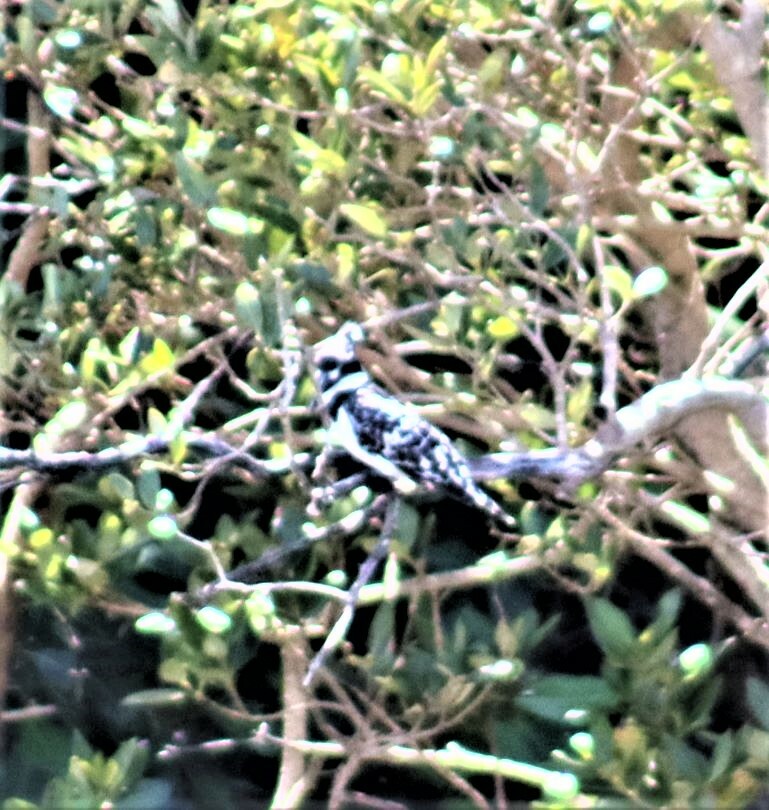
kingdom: Animalia
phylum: Chordata
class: Aves
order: Coraciiformes
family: Alcedinidae
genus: Ceryle
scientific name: Ceryle rudis
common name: Pied kingfisher
